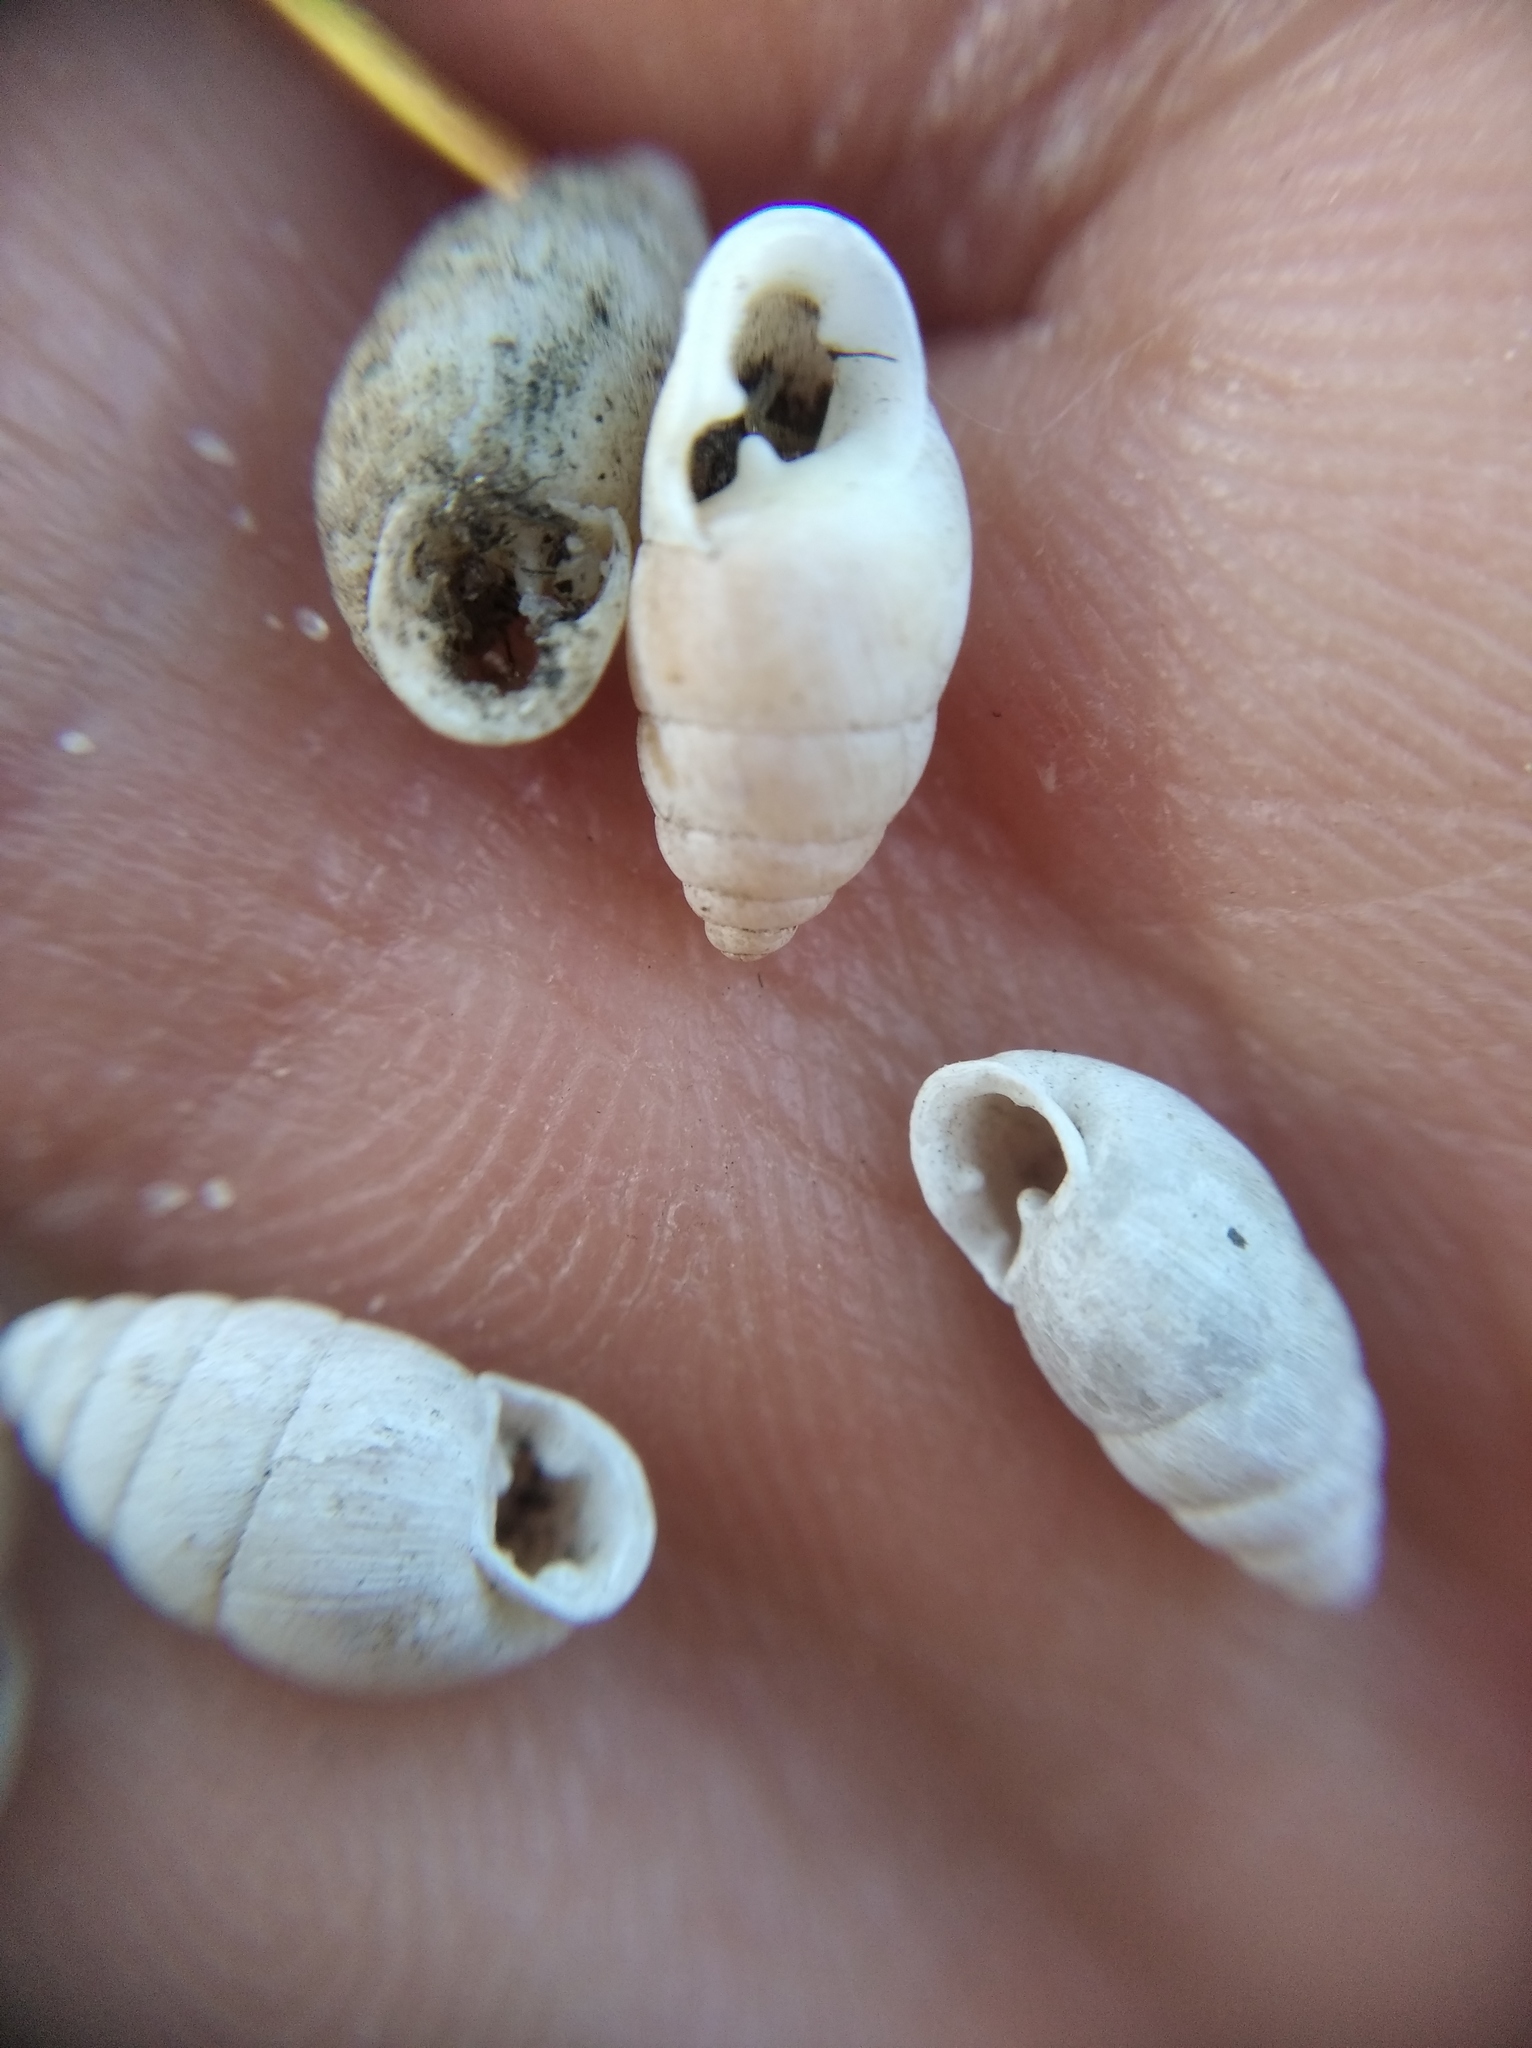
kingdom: Animalia
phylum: Mollusca
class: Gastropoda
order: Stylommatophora
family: Enidae
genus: Chondrula
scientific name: Chondrula tridens
